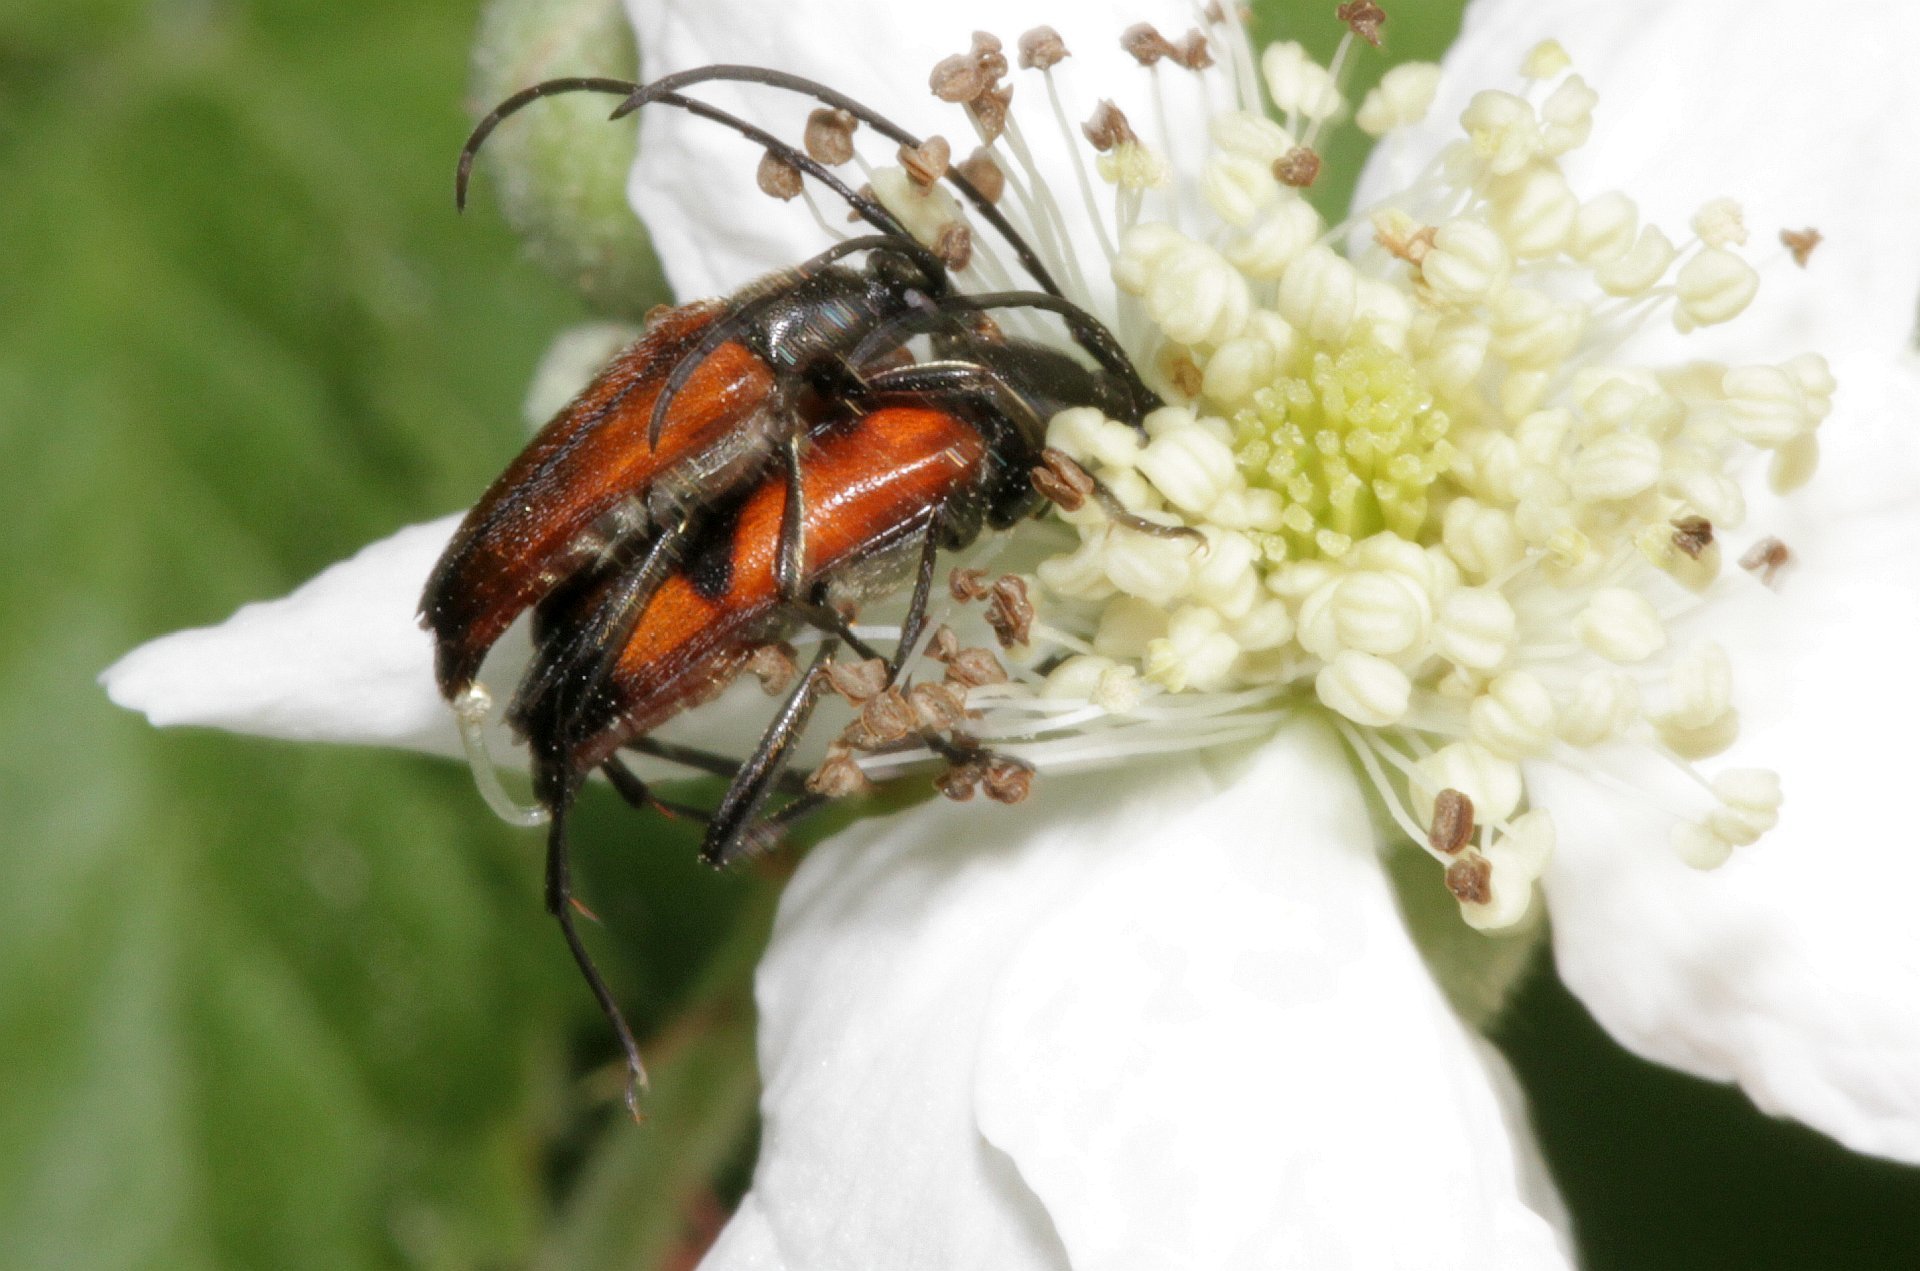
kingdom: Animalia
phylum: Arthropoda
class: Insecta
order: Coleoptera
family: Cerambycidae
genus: Stenurella
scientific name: Stenurella bifasciata
